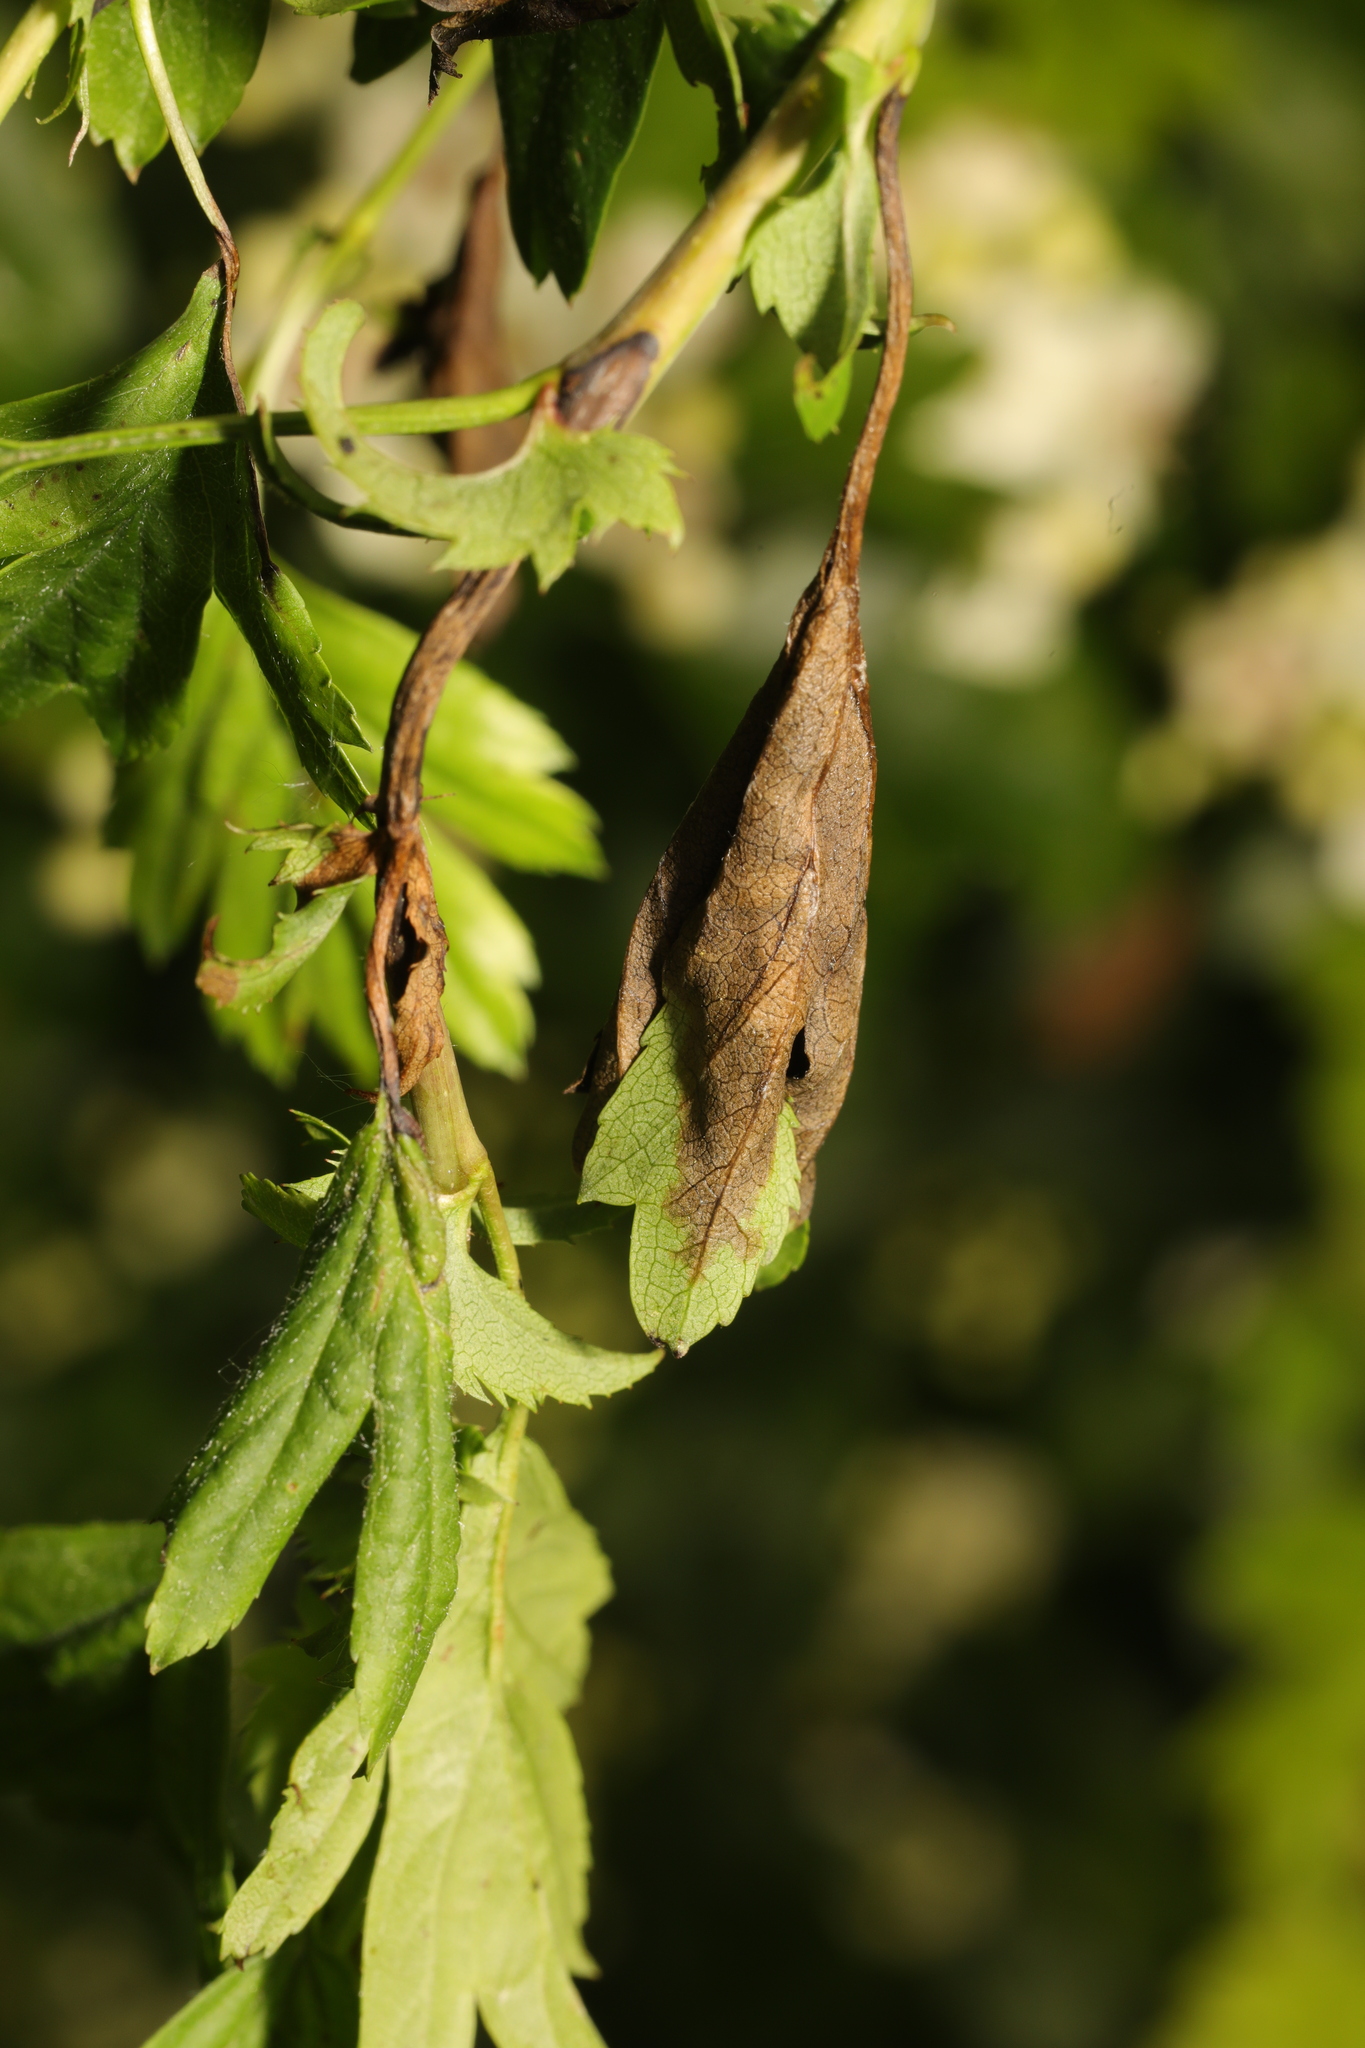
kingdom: Fungi
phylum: Ascomycota
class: Leotiomycetes
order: Helotiales
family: Sclerotiniaceae
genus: Monilinia
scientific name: Monilinia johnsonii
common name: Haw goblet
